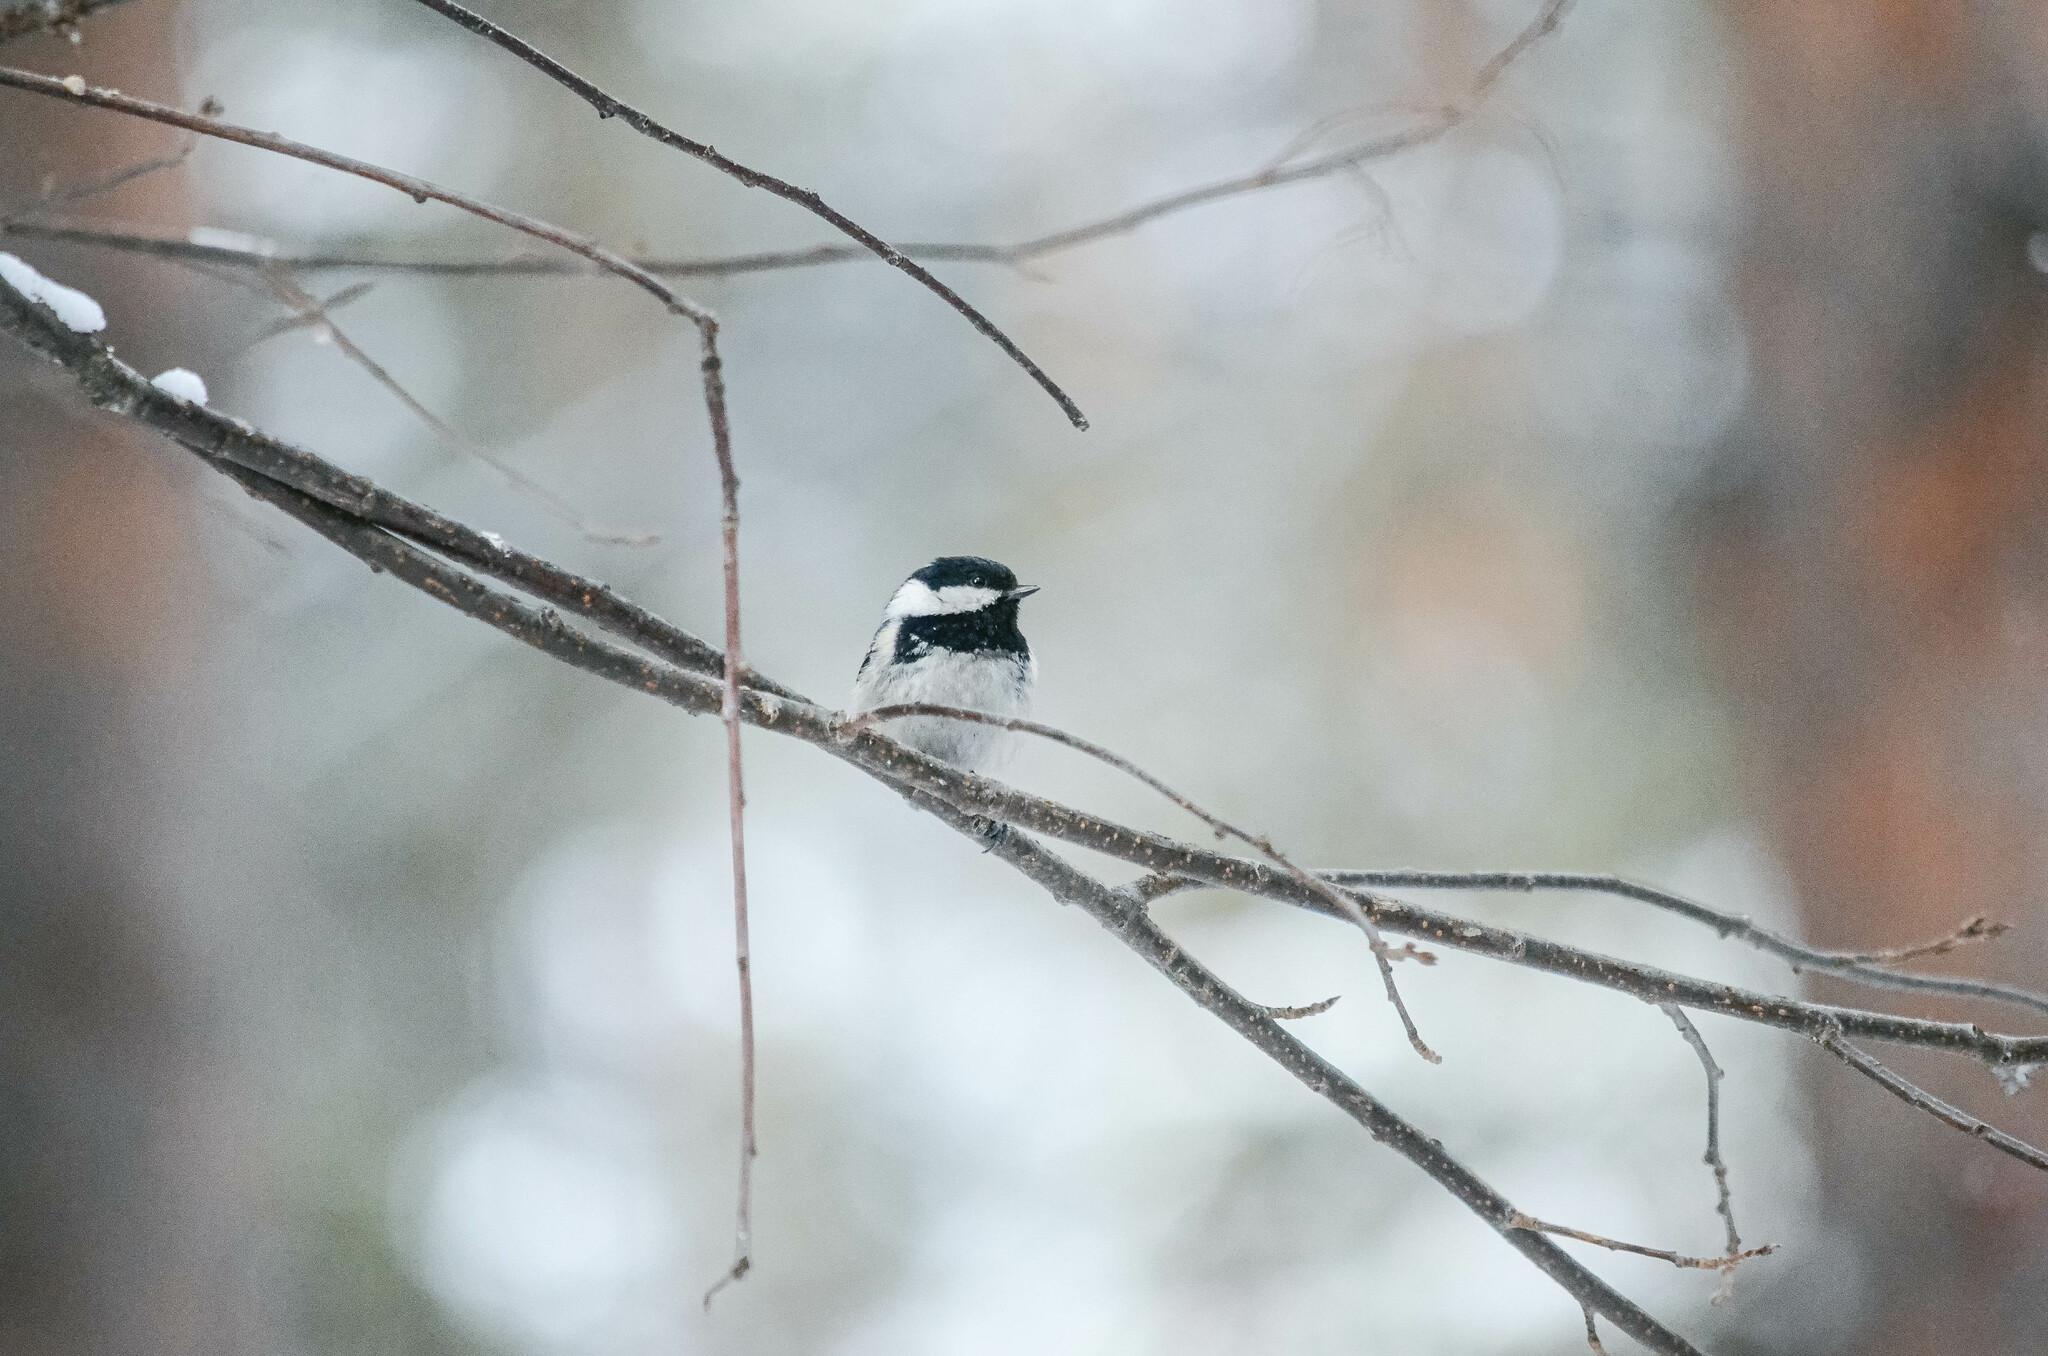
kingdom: Animalia
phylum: Chordata
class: Aves
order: Passeriformes
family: Paridae
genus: Periparus
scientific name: Periparus ater
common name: Coal tit
